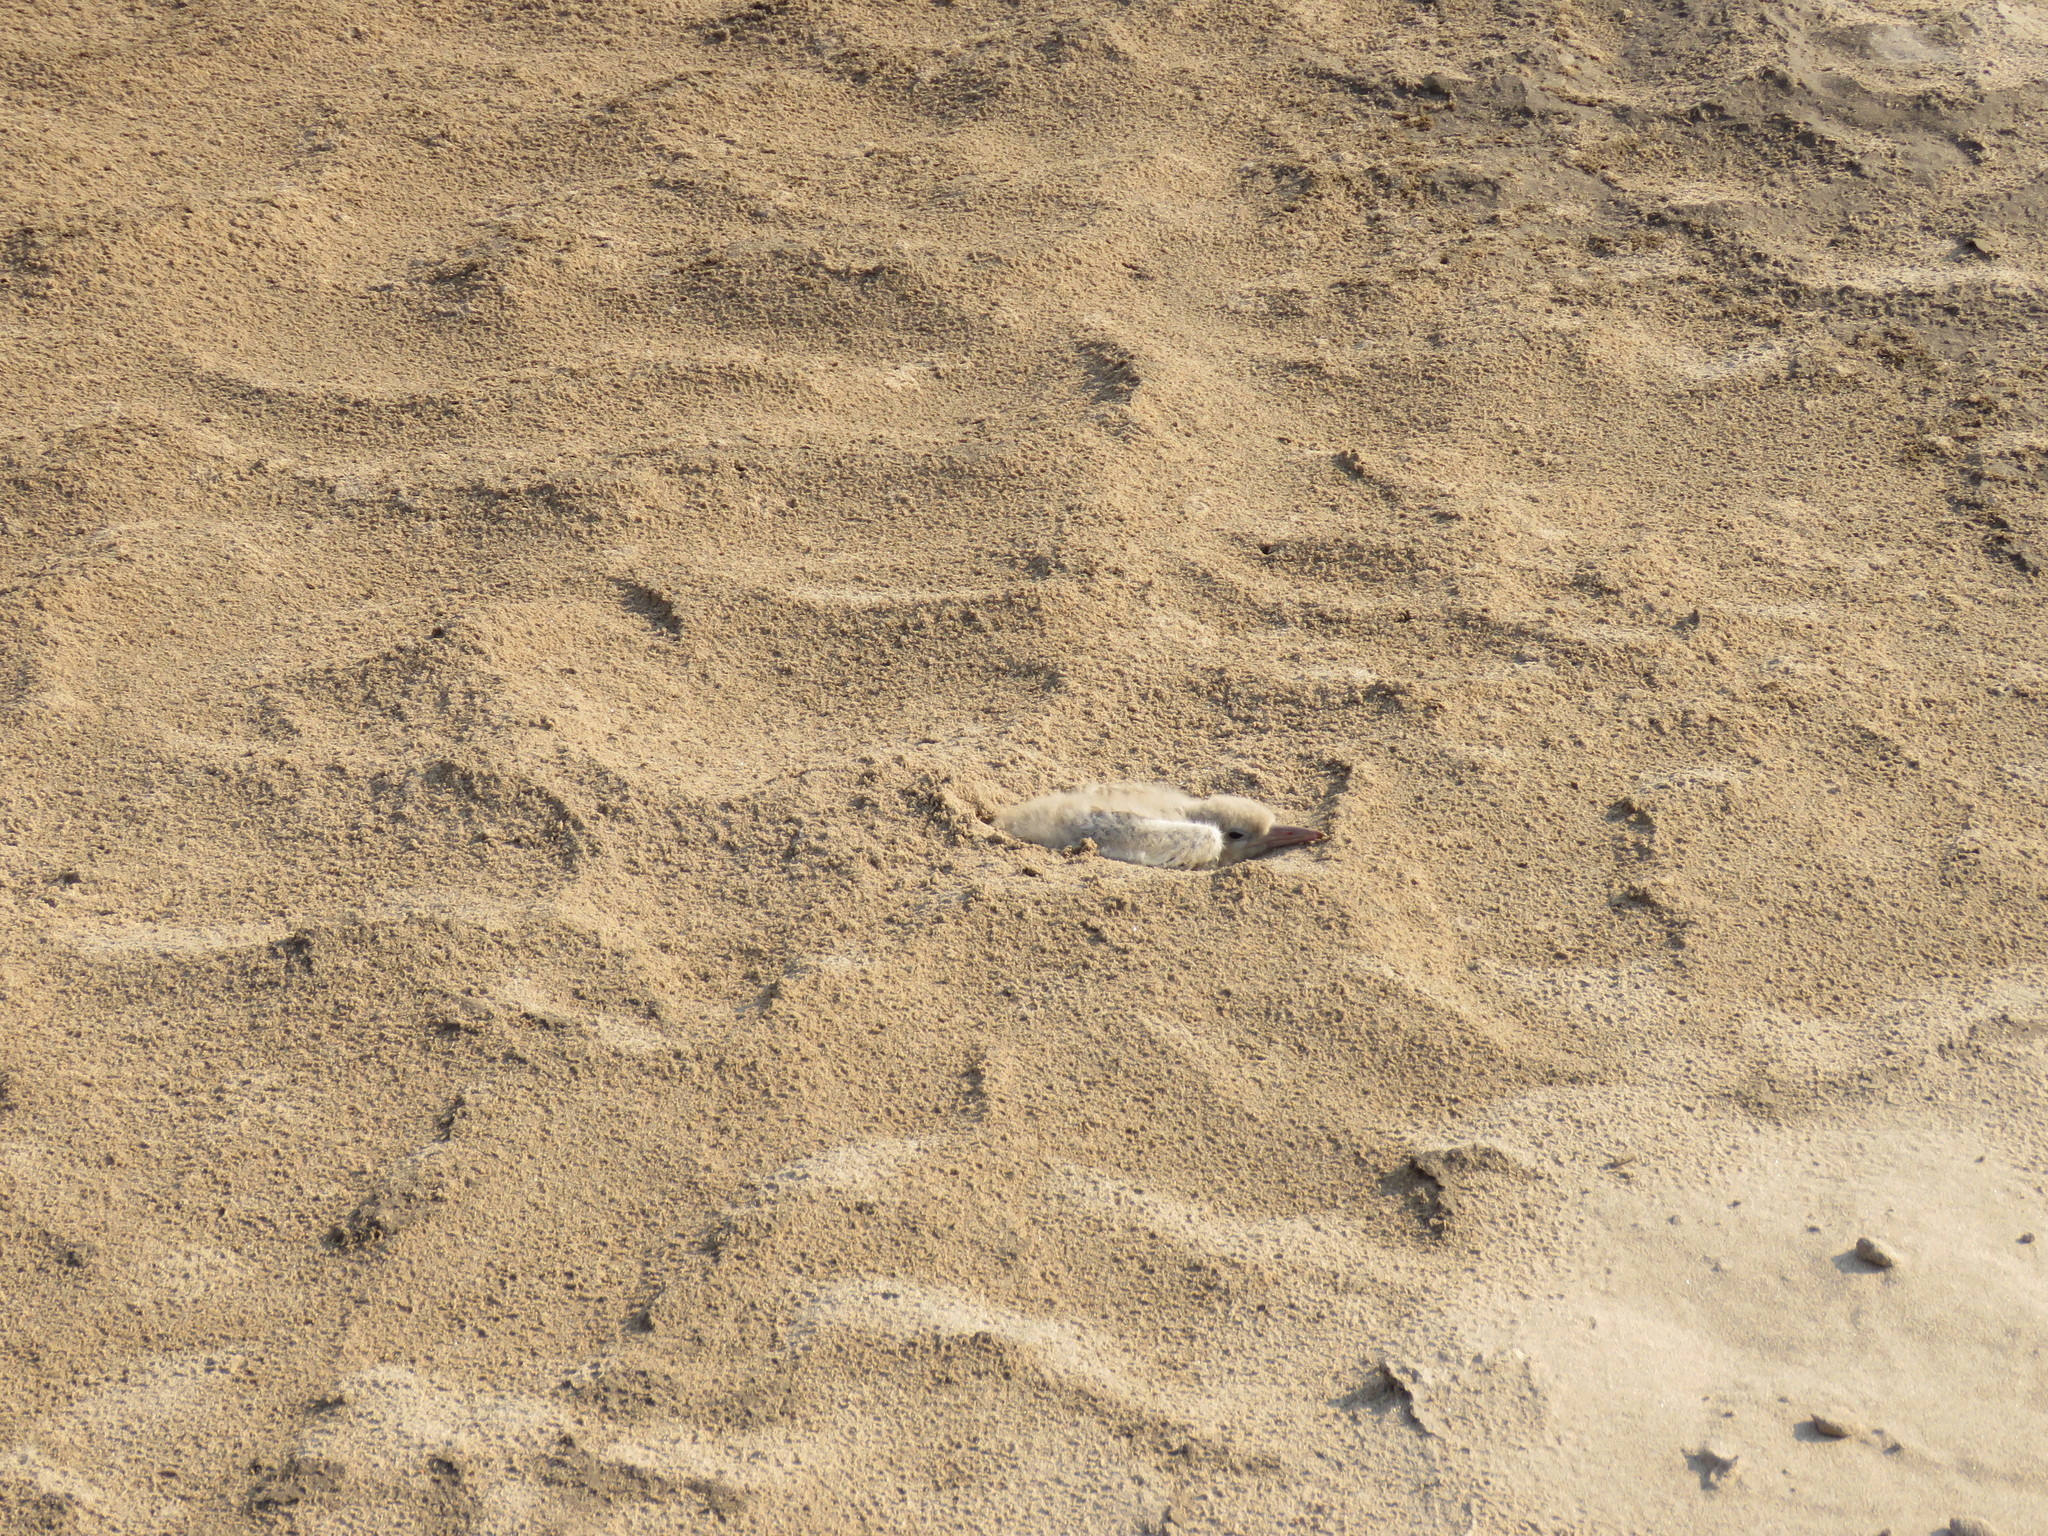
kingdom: Animalia
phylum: Chordata
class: Aves
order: Charadriiformes
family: Laridae
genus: Phaetusa
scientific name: Phaetusa simplex
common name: Large-billed tern
